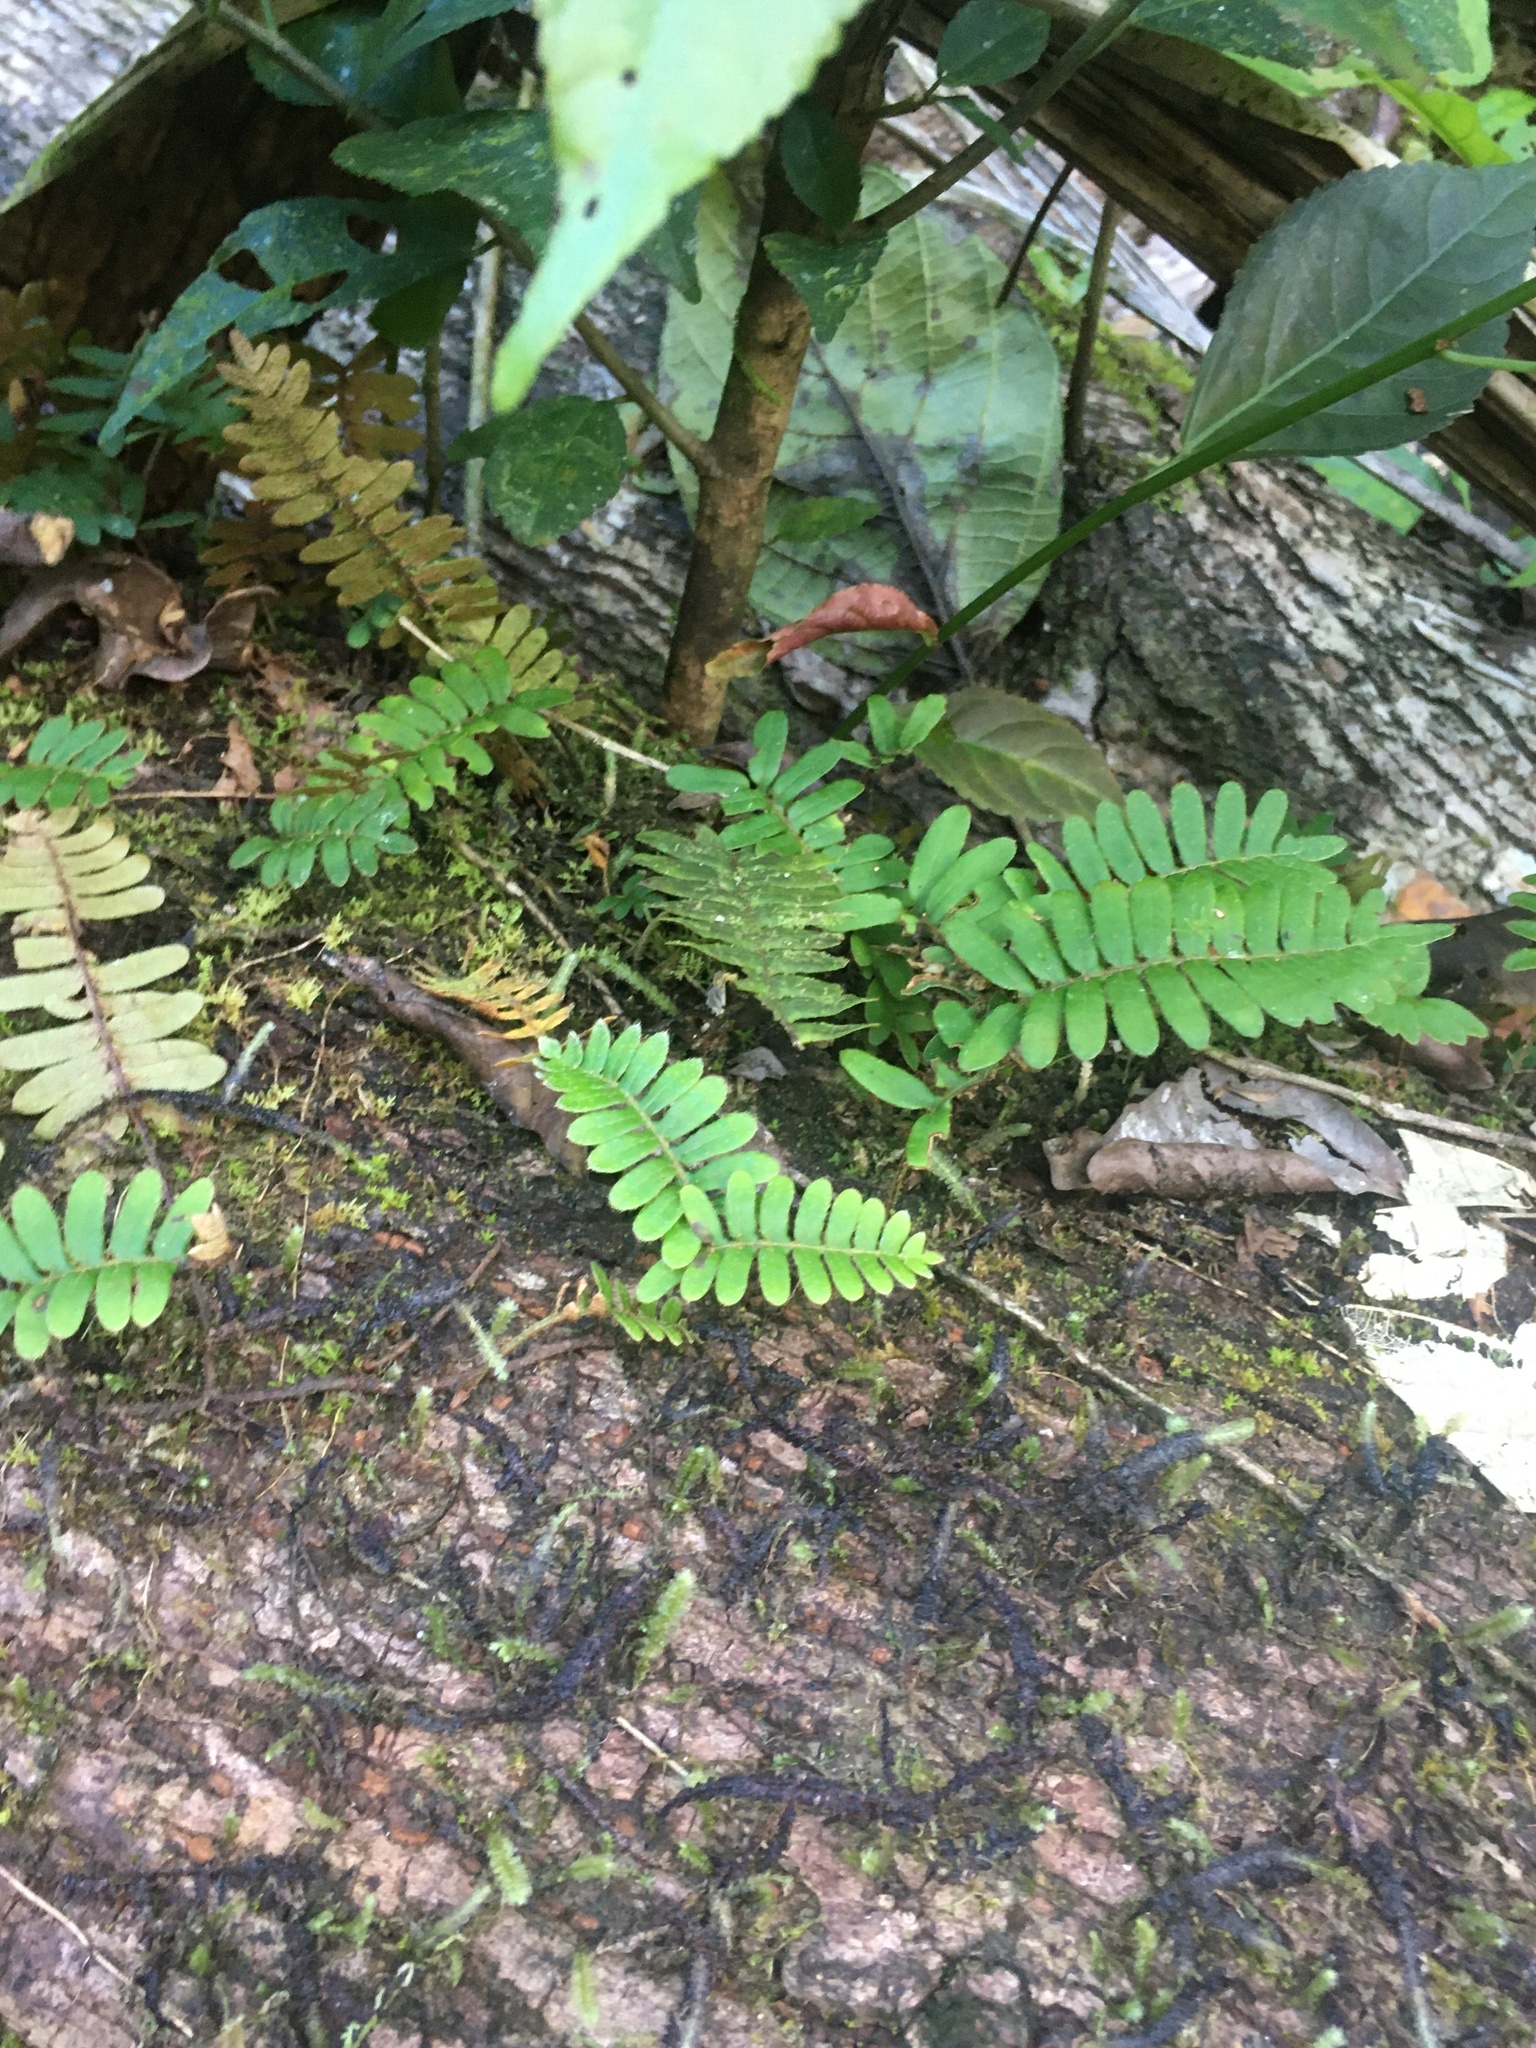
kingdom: Plantae
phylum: Tracheophyta
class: Polypodiopsida
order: Polypodiales
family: Polypodiaceae
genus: Pleopeltis
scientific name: Pleopeltis polypodioides
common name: Resurrection fern
